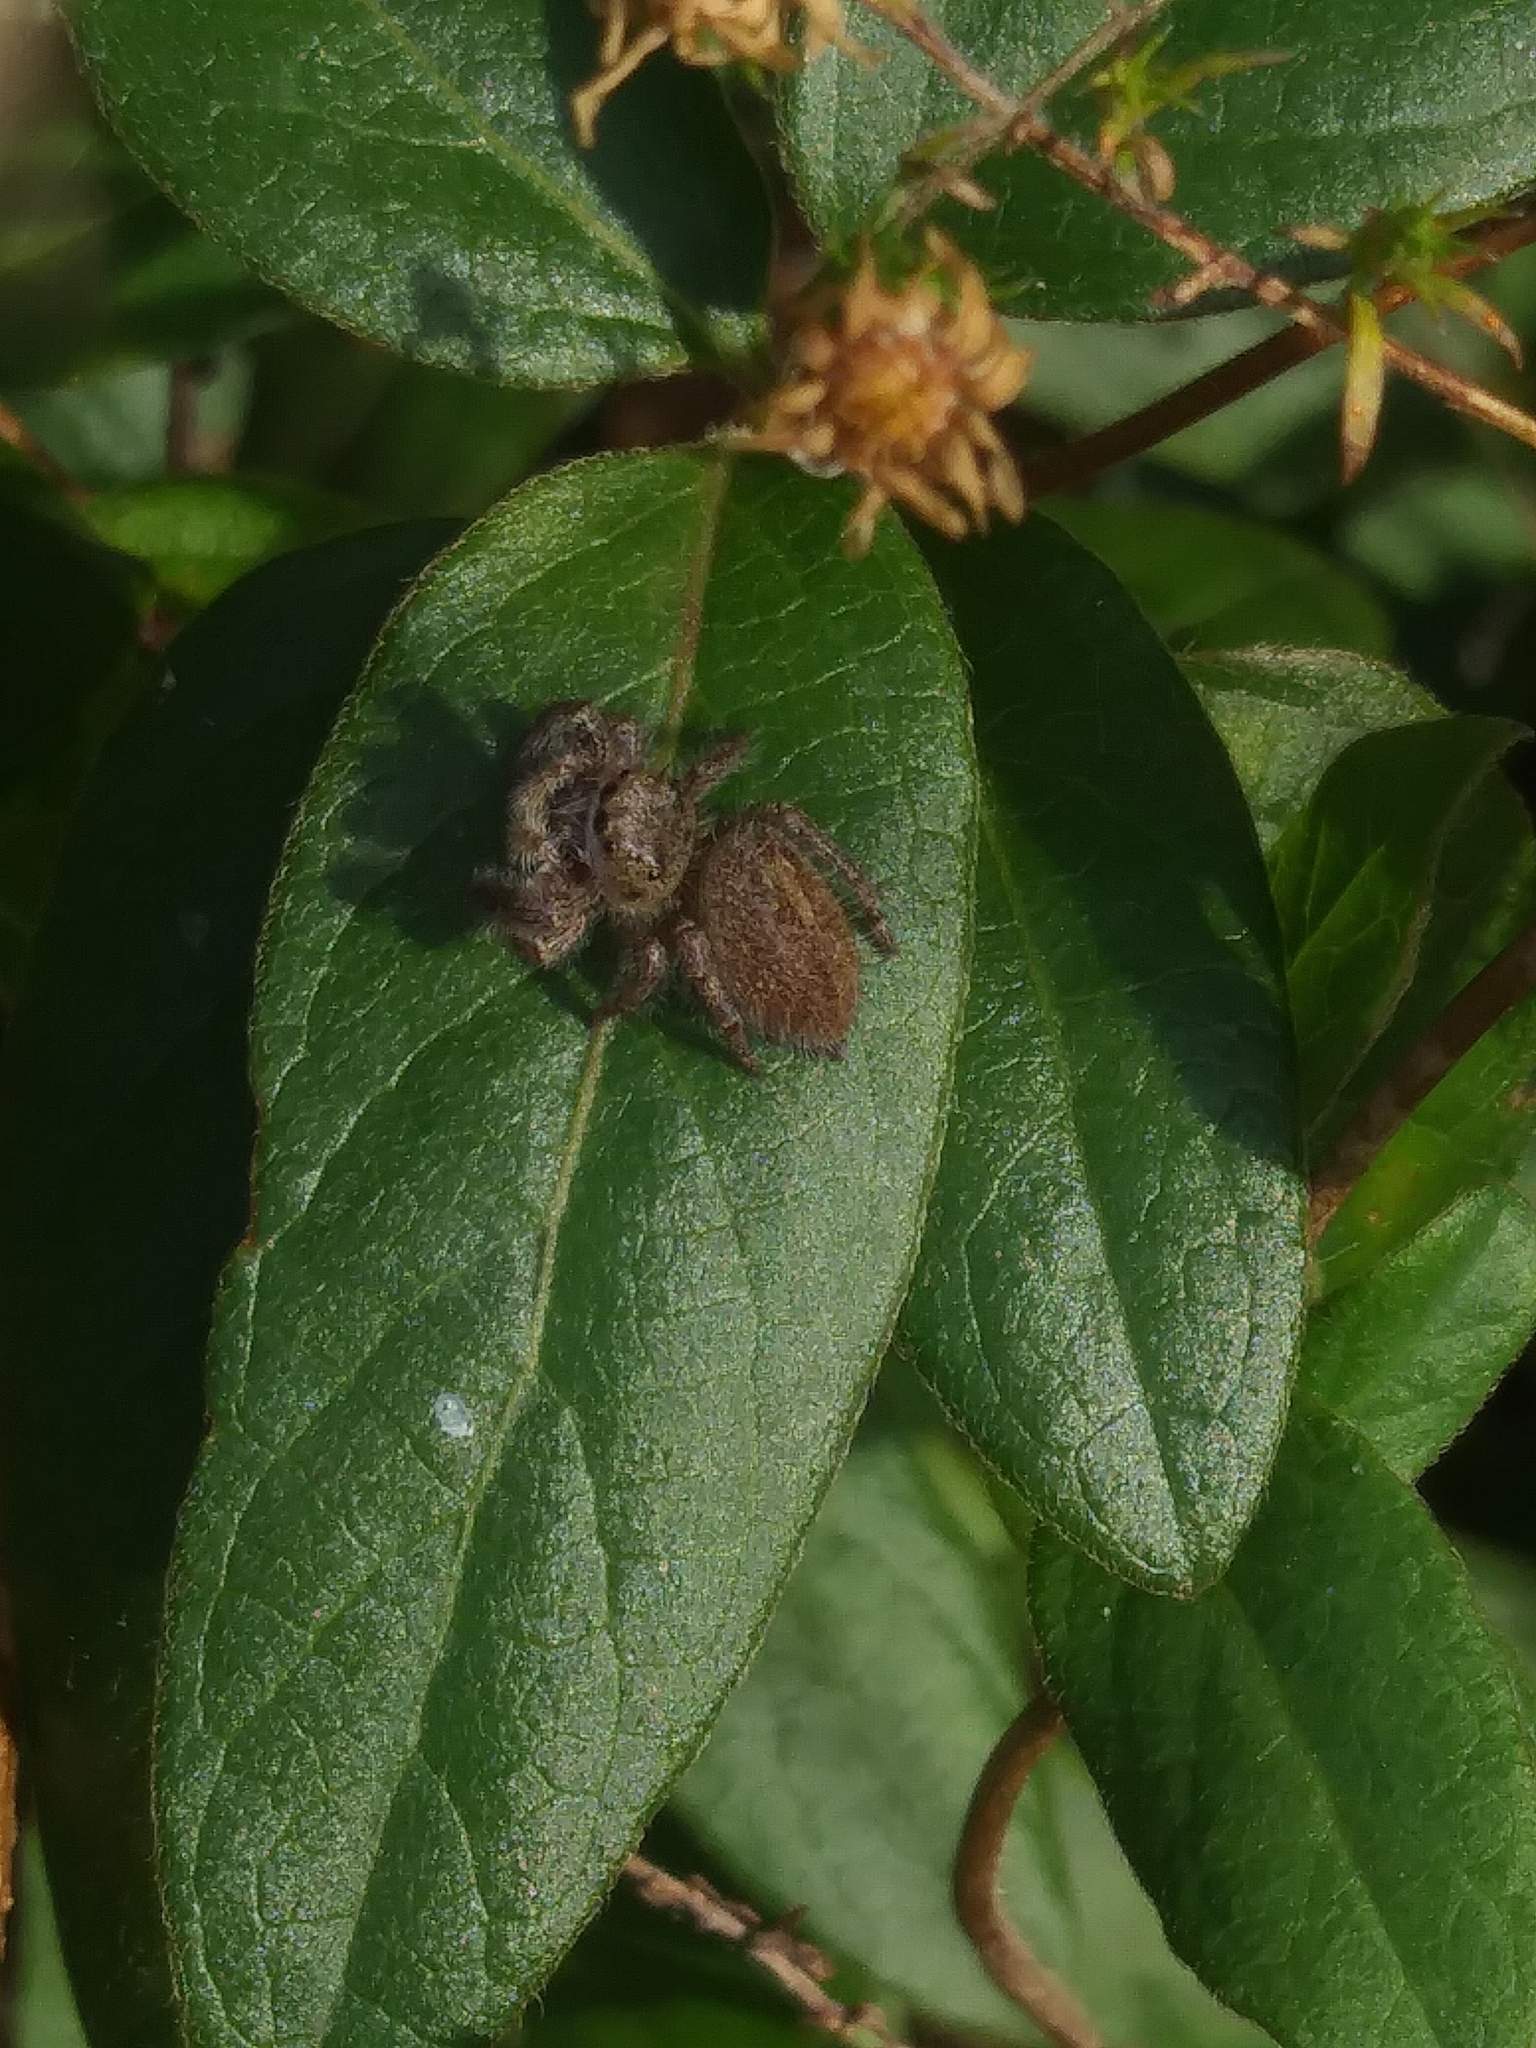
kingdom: Animalia
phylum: Arthropoda
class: Arachnida
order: Araneae
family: Salticidae
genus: Phidippus
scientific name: Phidippus princeps
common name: Grayish jumping spider
